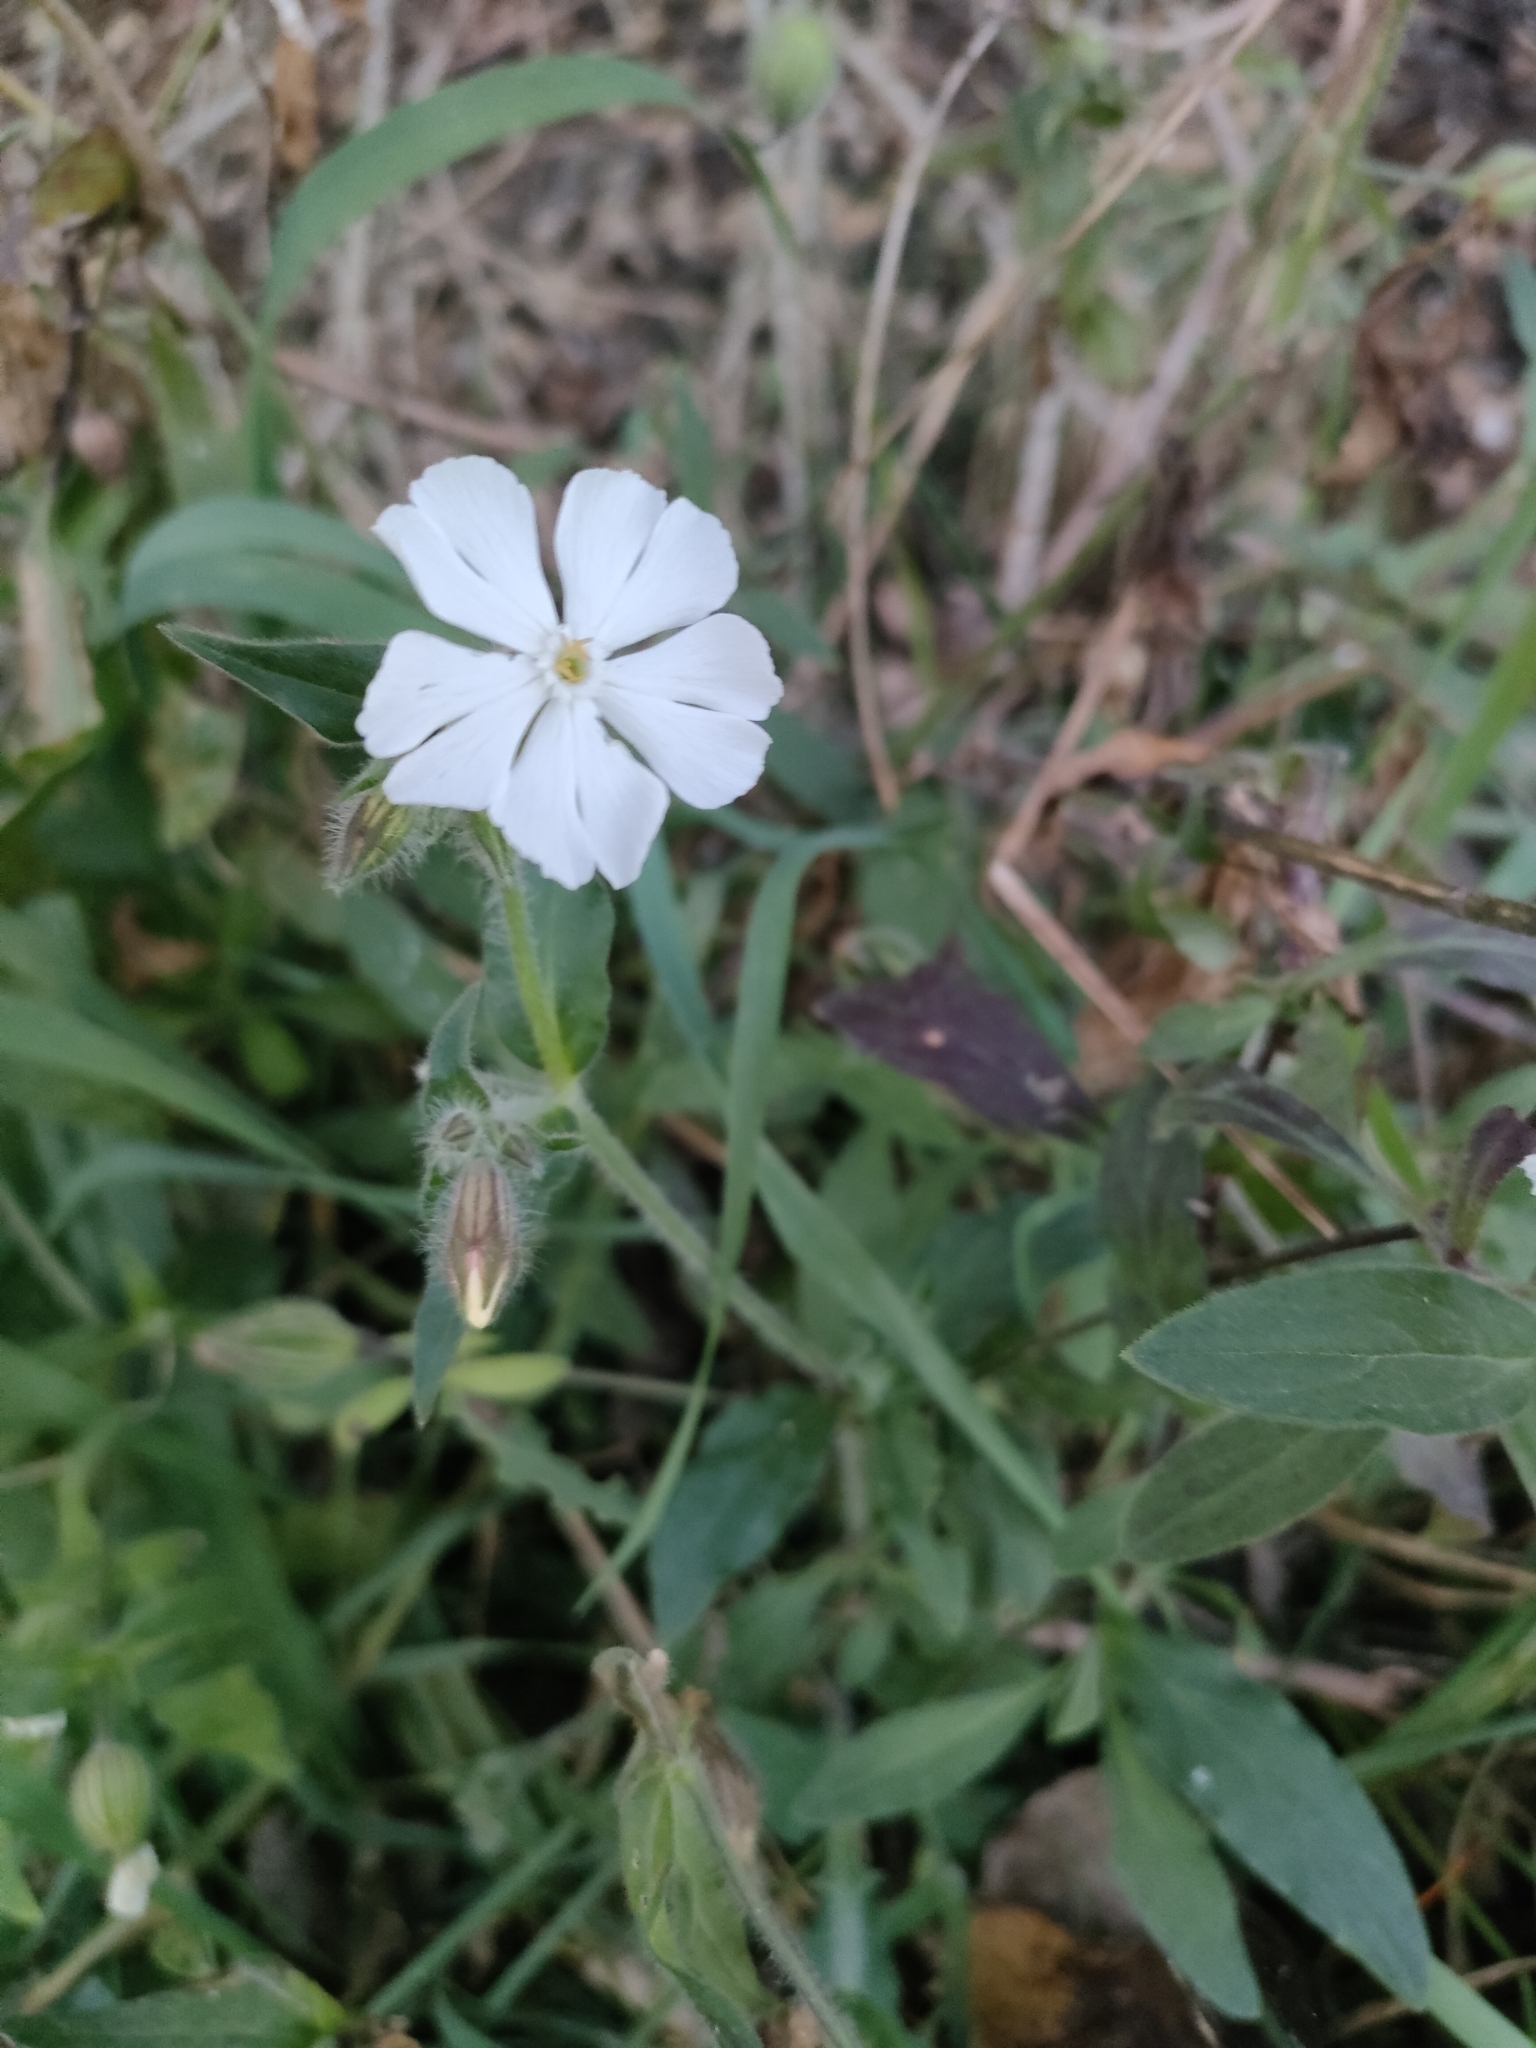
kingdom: Plantae
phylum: Tracheophyta
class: Magnoliopsida
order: Caryophyllales
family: Caryophyllaceae
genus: Silene
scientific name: Silene latifolia
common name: White campion
